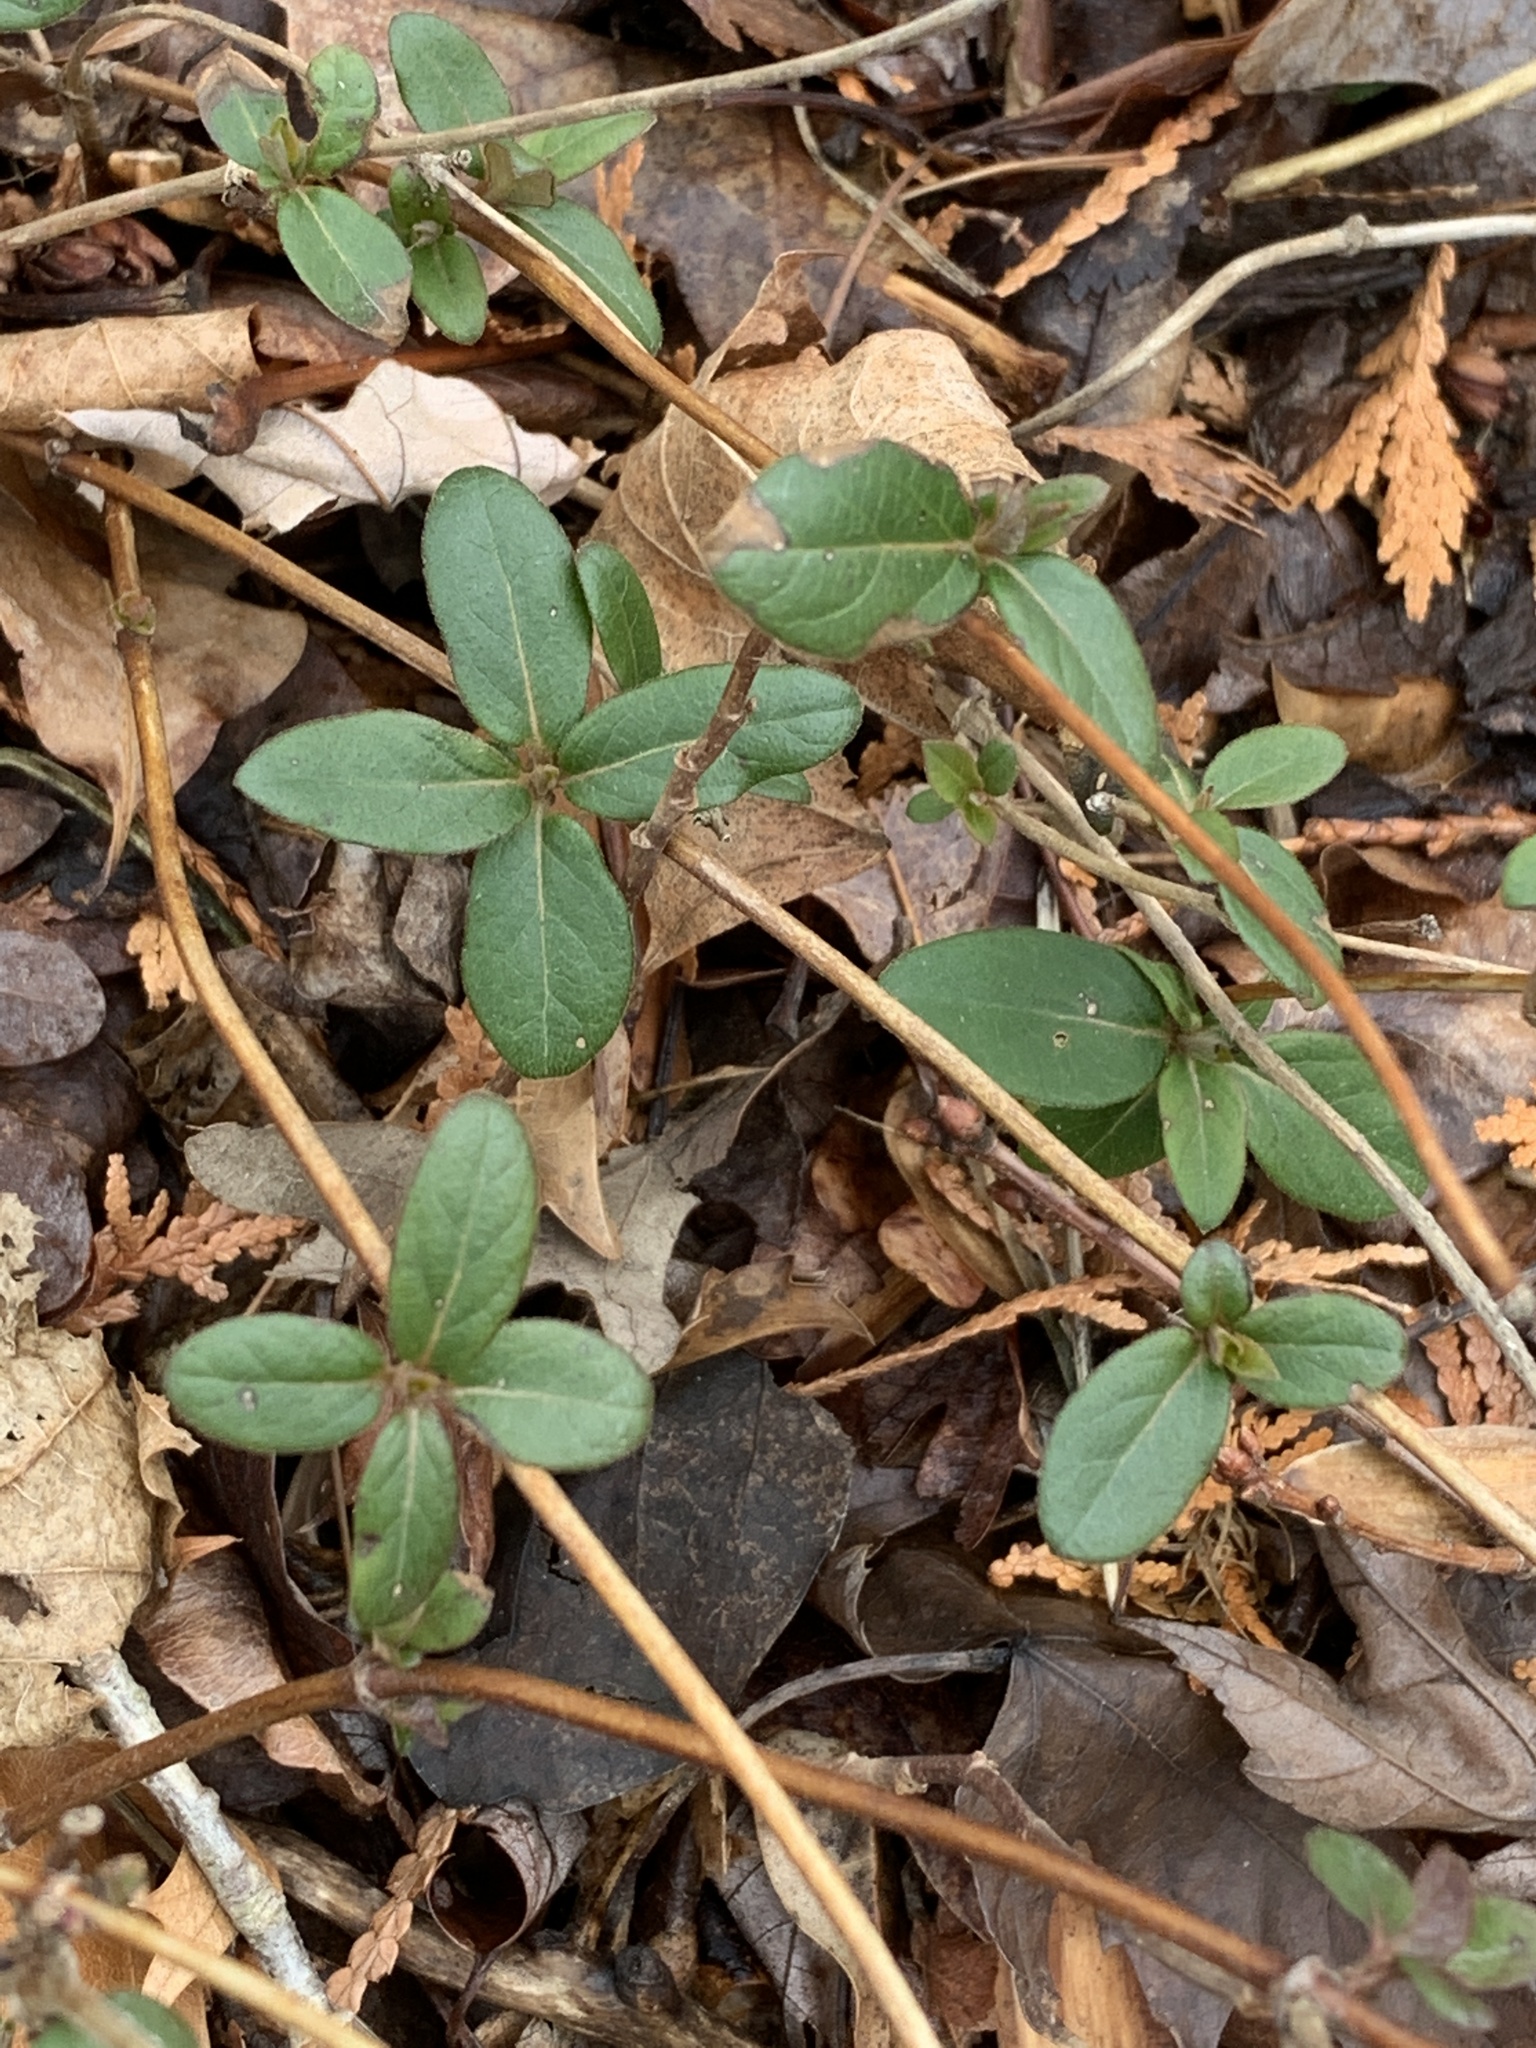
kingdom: Plantae
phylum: Tracheophyta
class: Magnoliopsida
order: Dipsacales
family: Caprifoliaceae
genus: Lonicera
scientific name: Lonicera japonica
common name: Japanese honeysuckle
